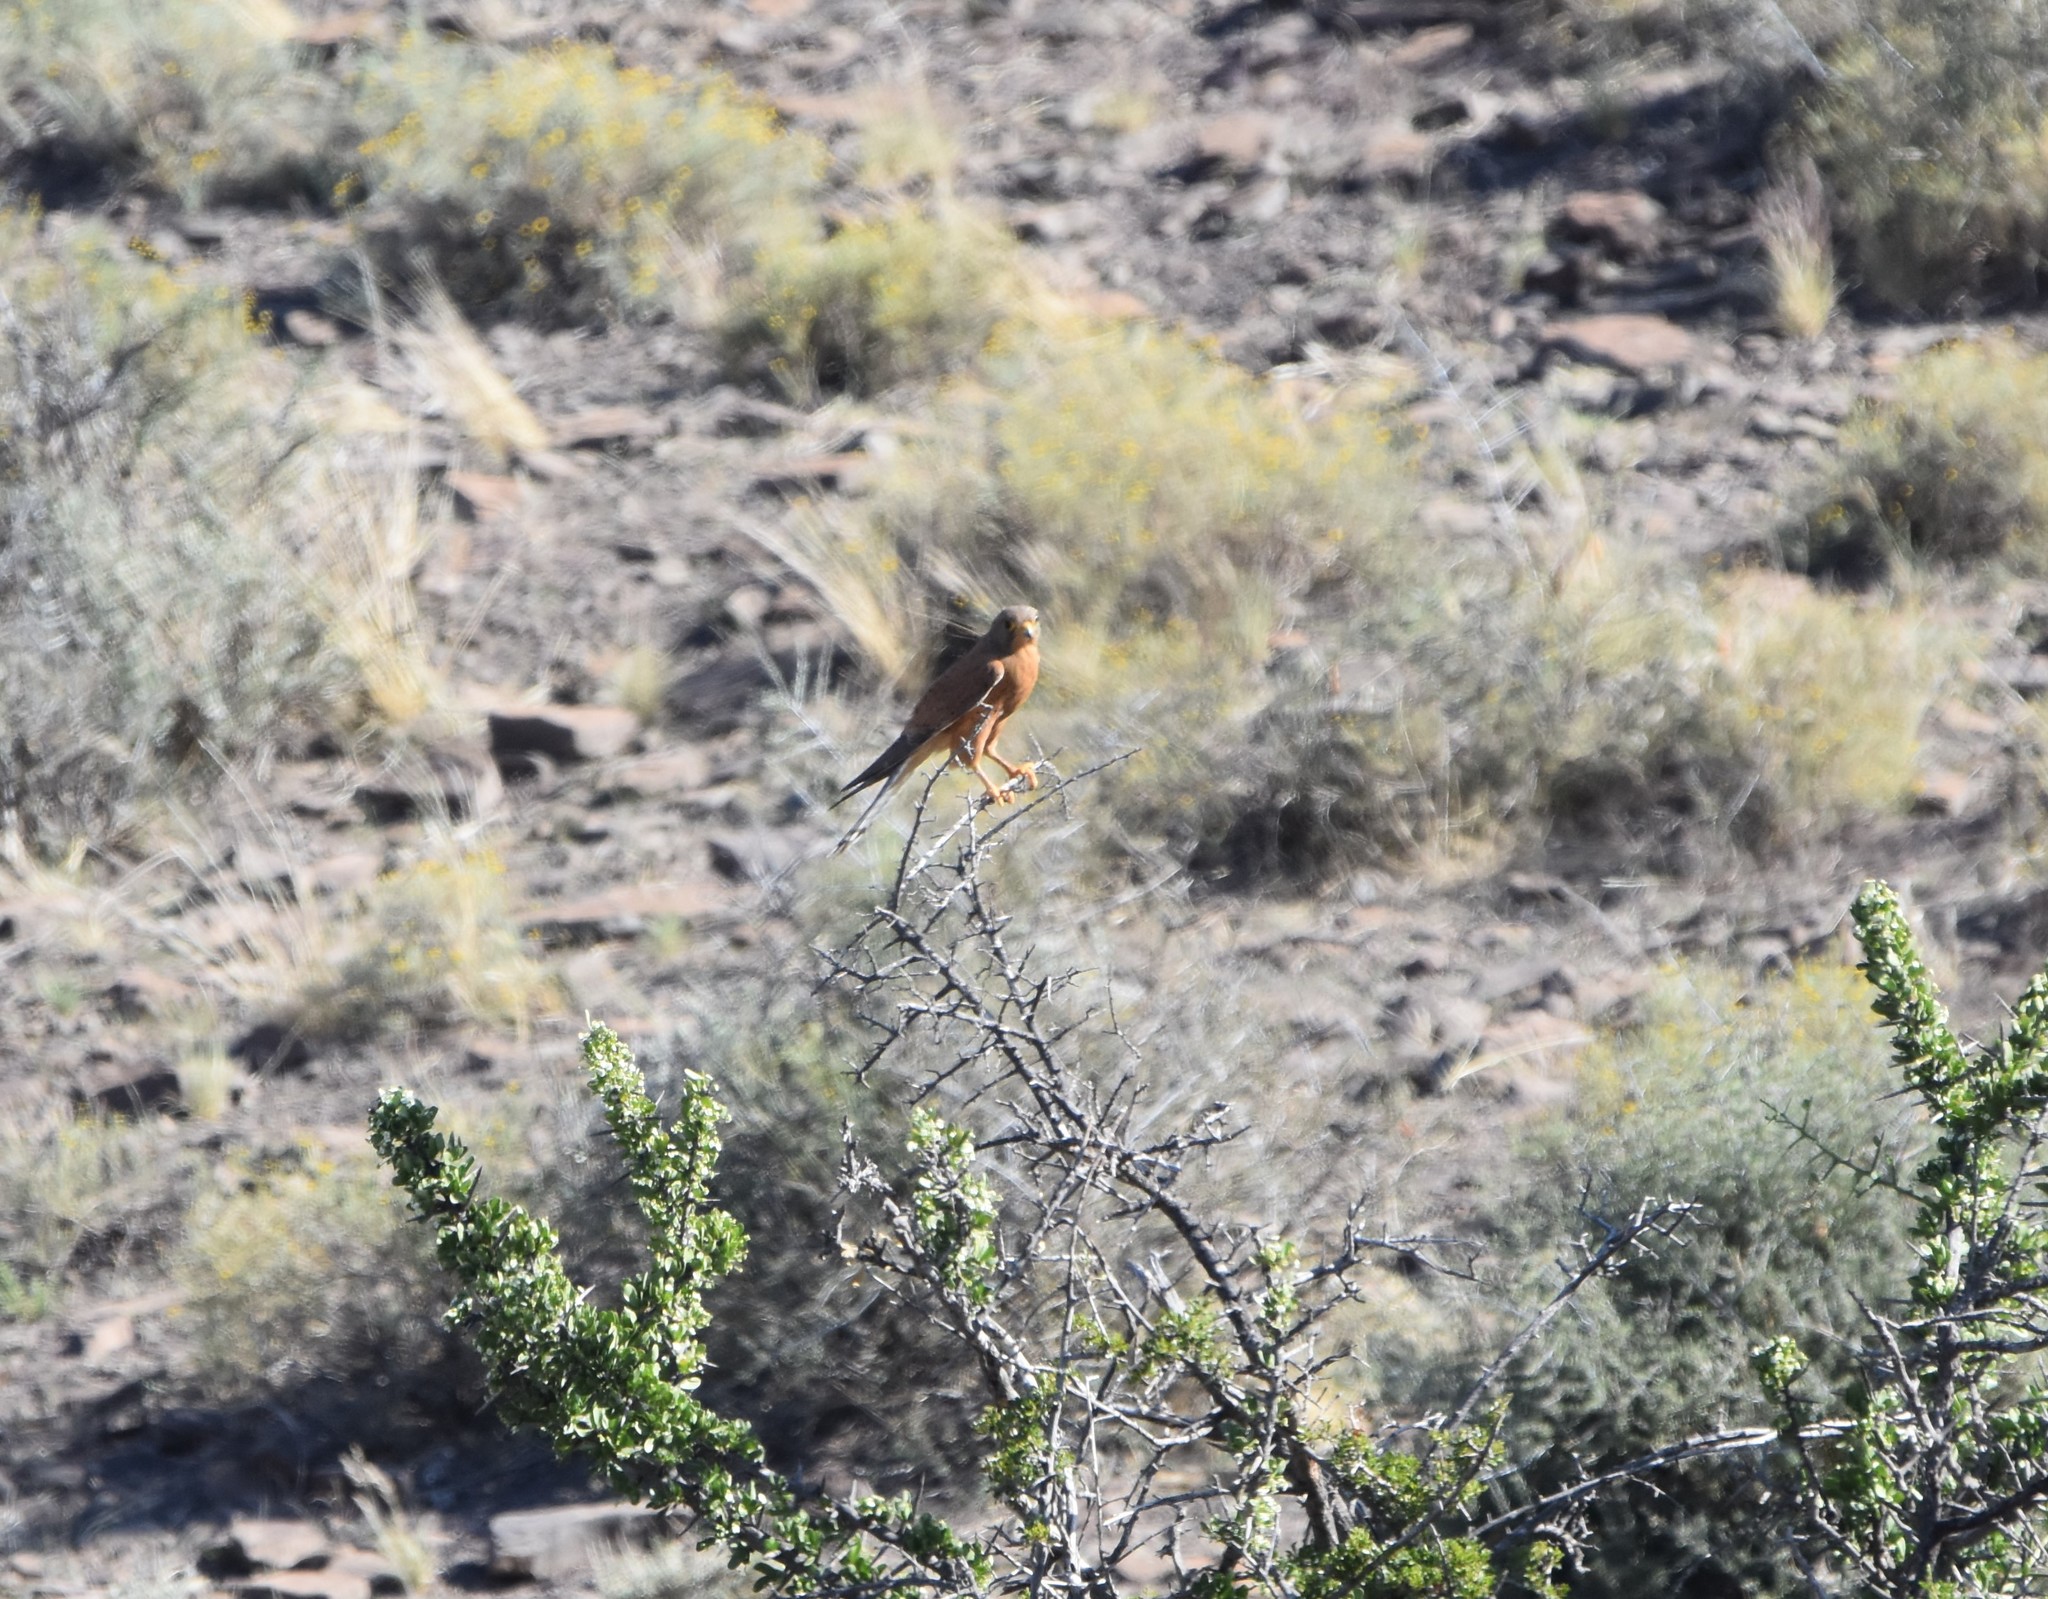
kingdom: Animalia
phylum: Chordata
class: Aves
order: Falconiformes
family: Falconidae
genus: Falco
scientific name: Falco rupicolus
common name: Rock kestrel
